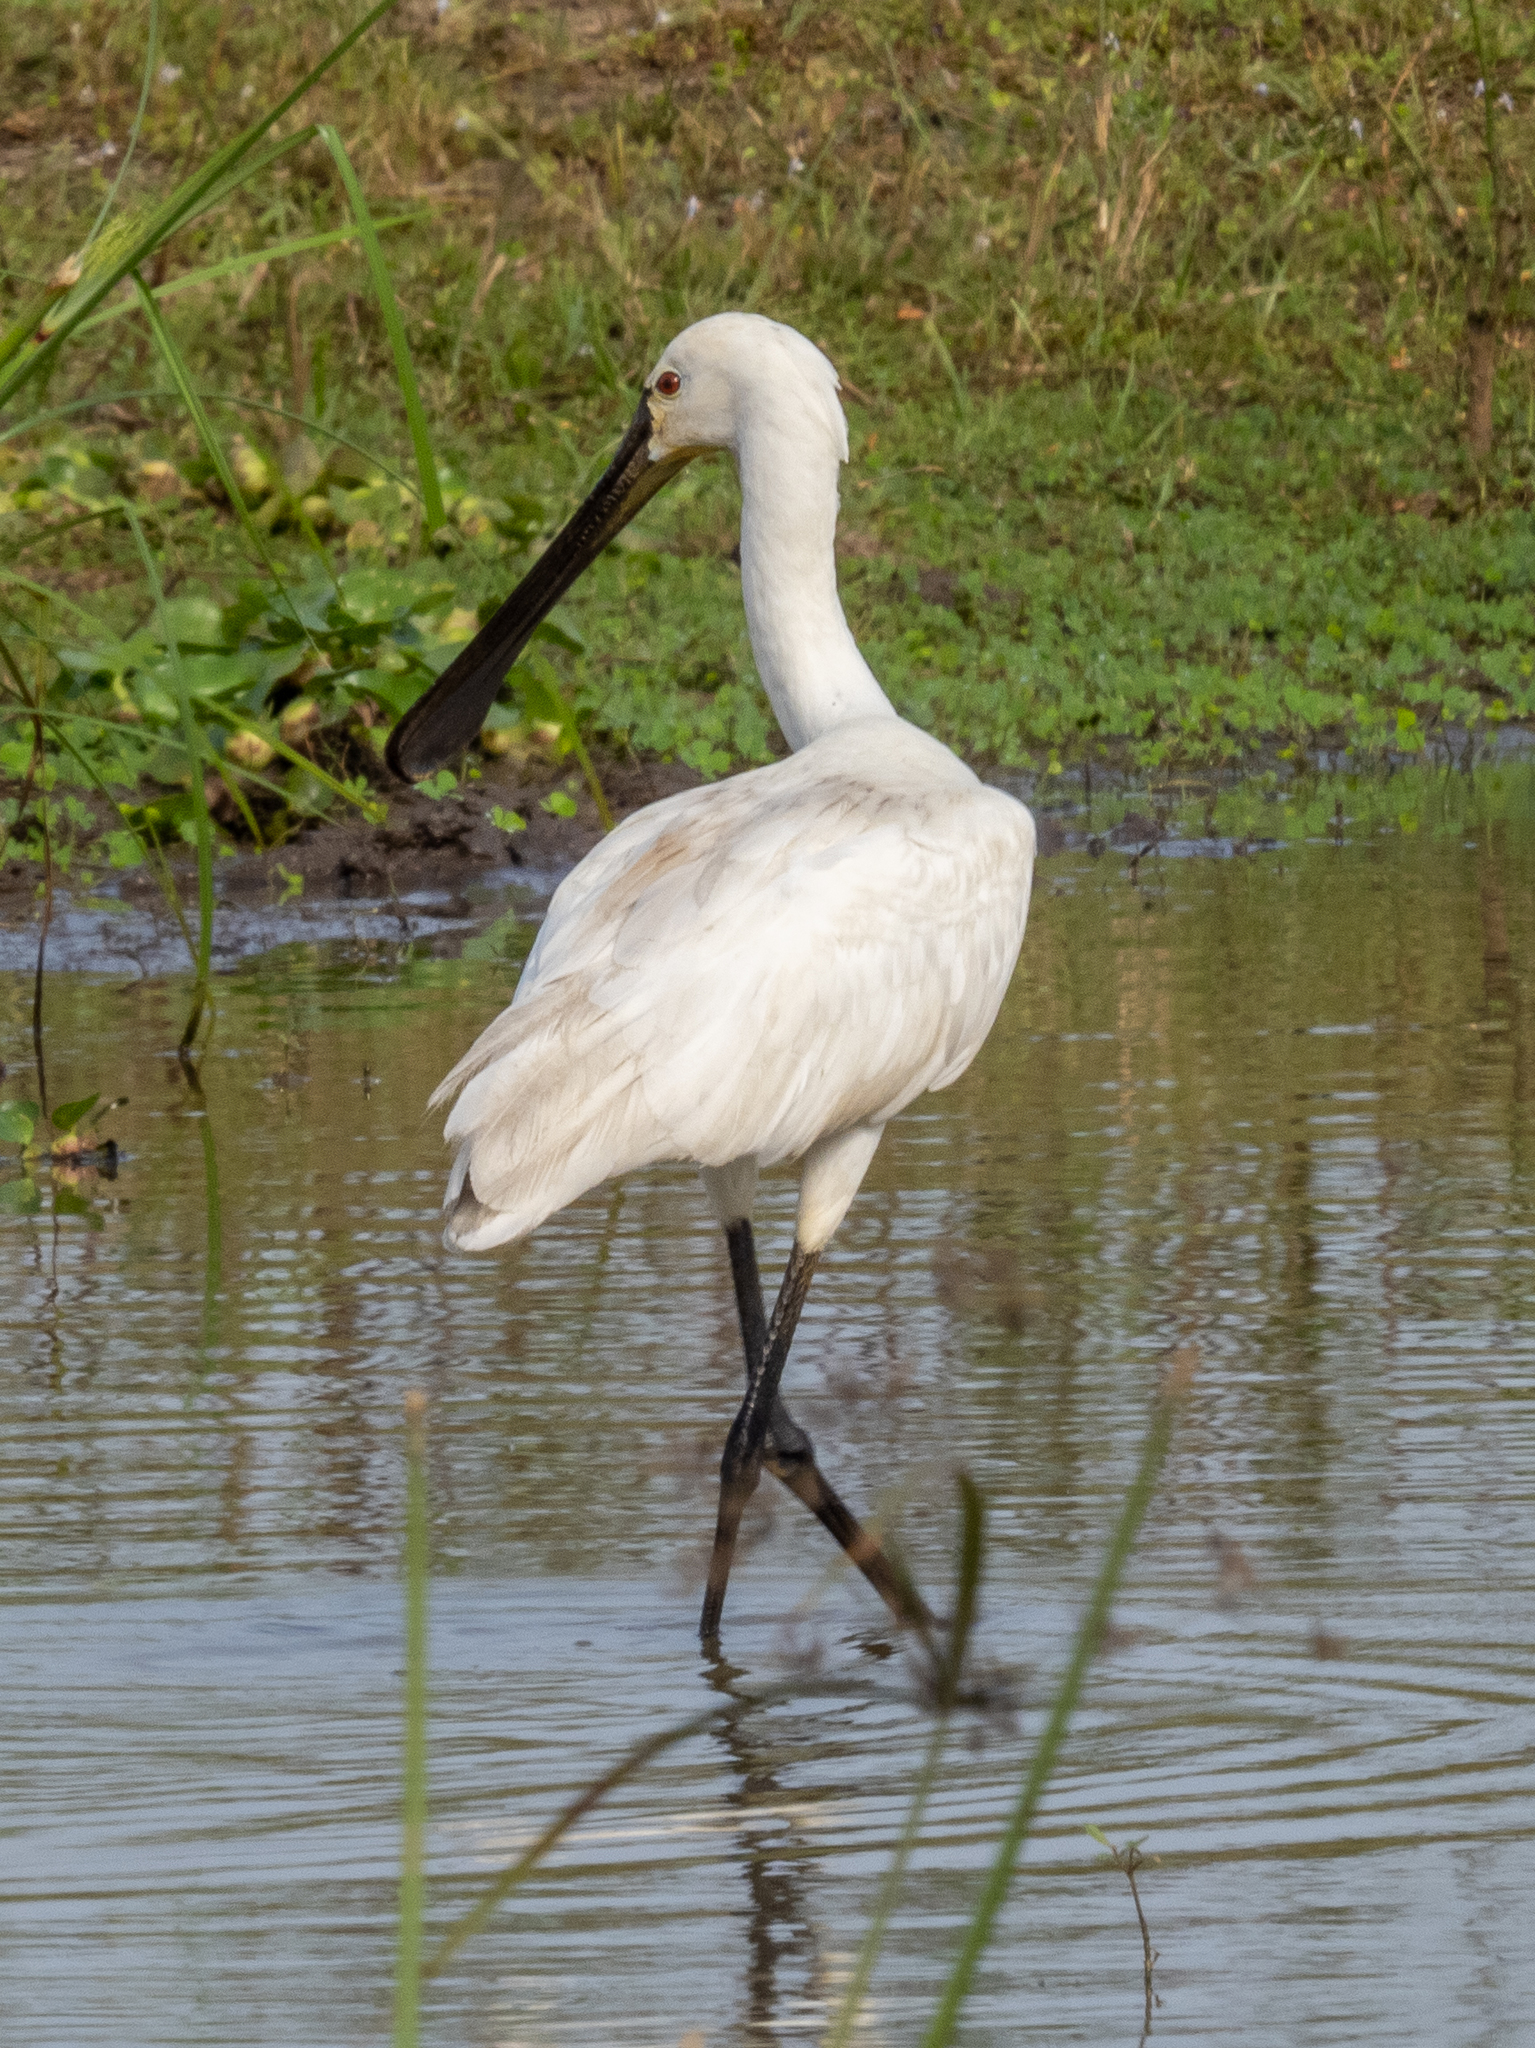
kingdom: Animalia
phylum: Chordata
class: Aves
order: Pelecaniformes
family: Threskiornithidae
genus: Platalea
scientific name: Platalea leucorodia
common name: Eurasian spoonbill
